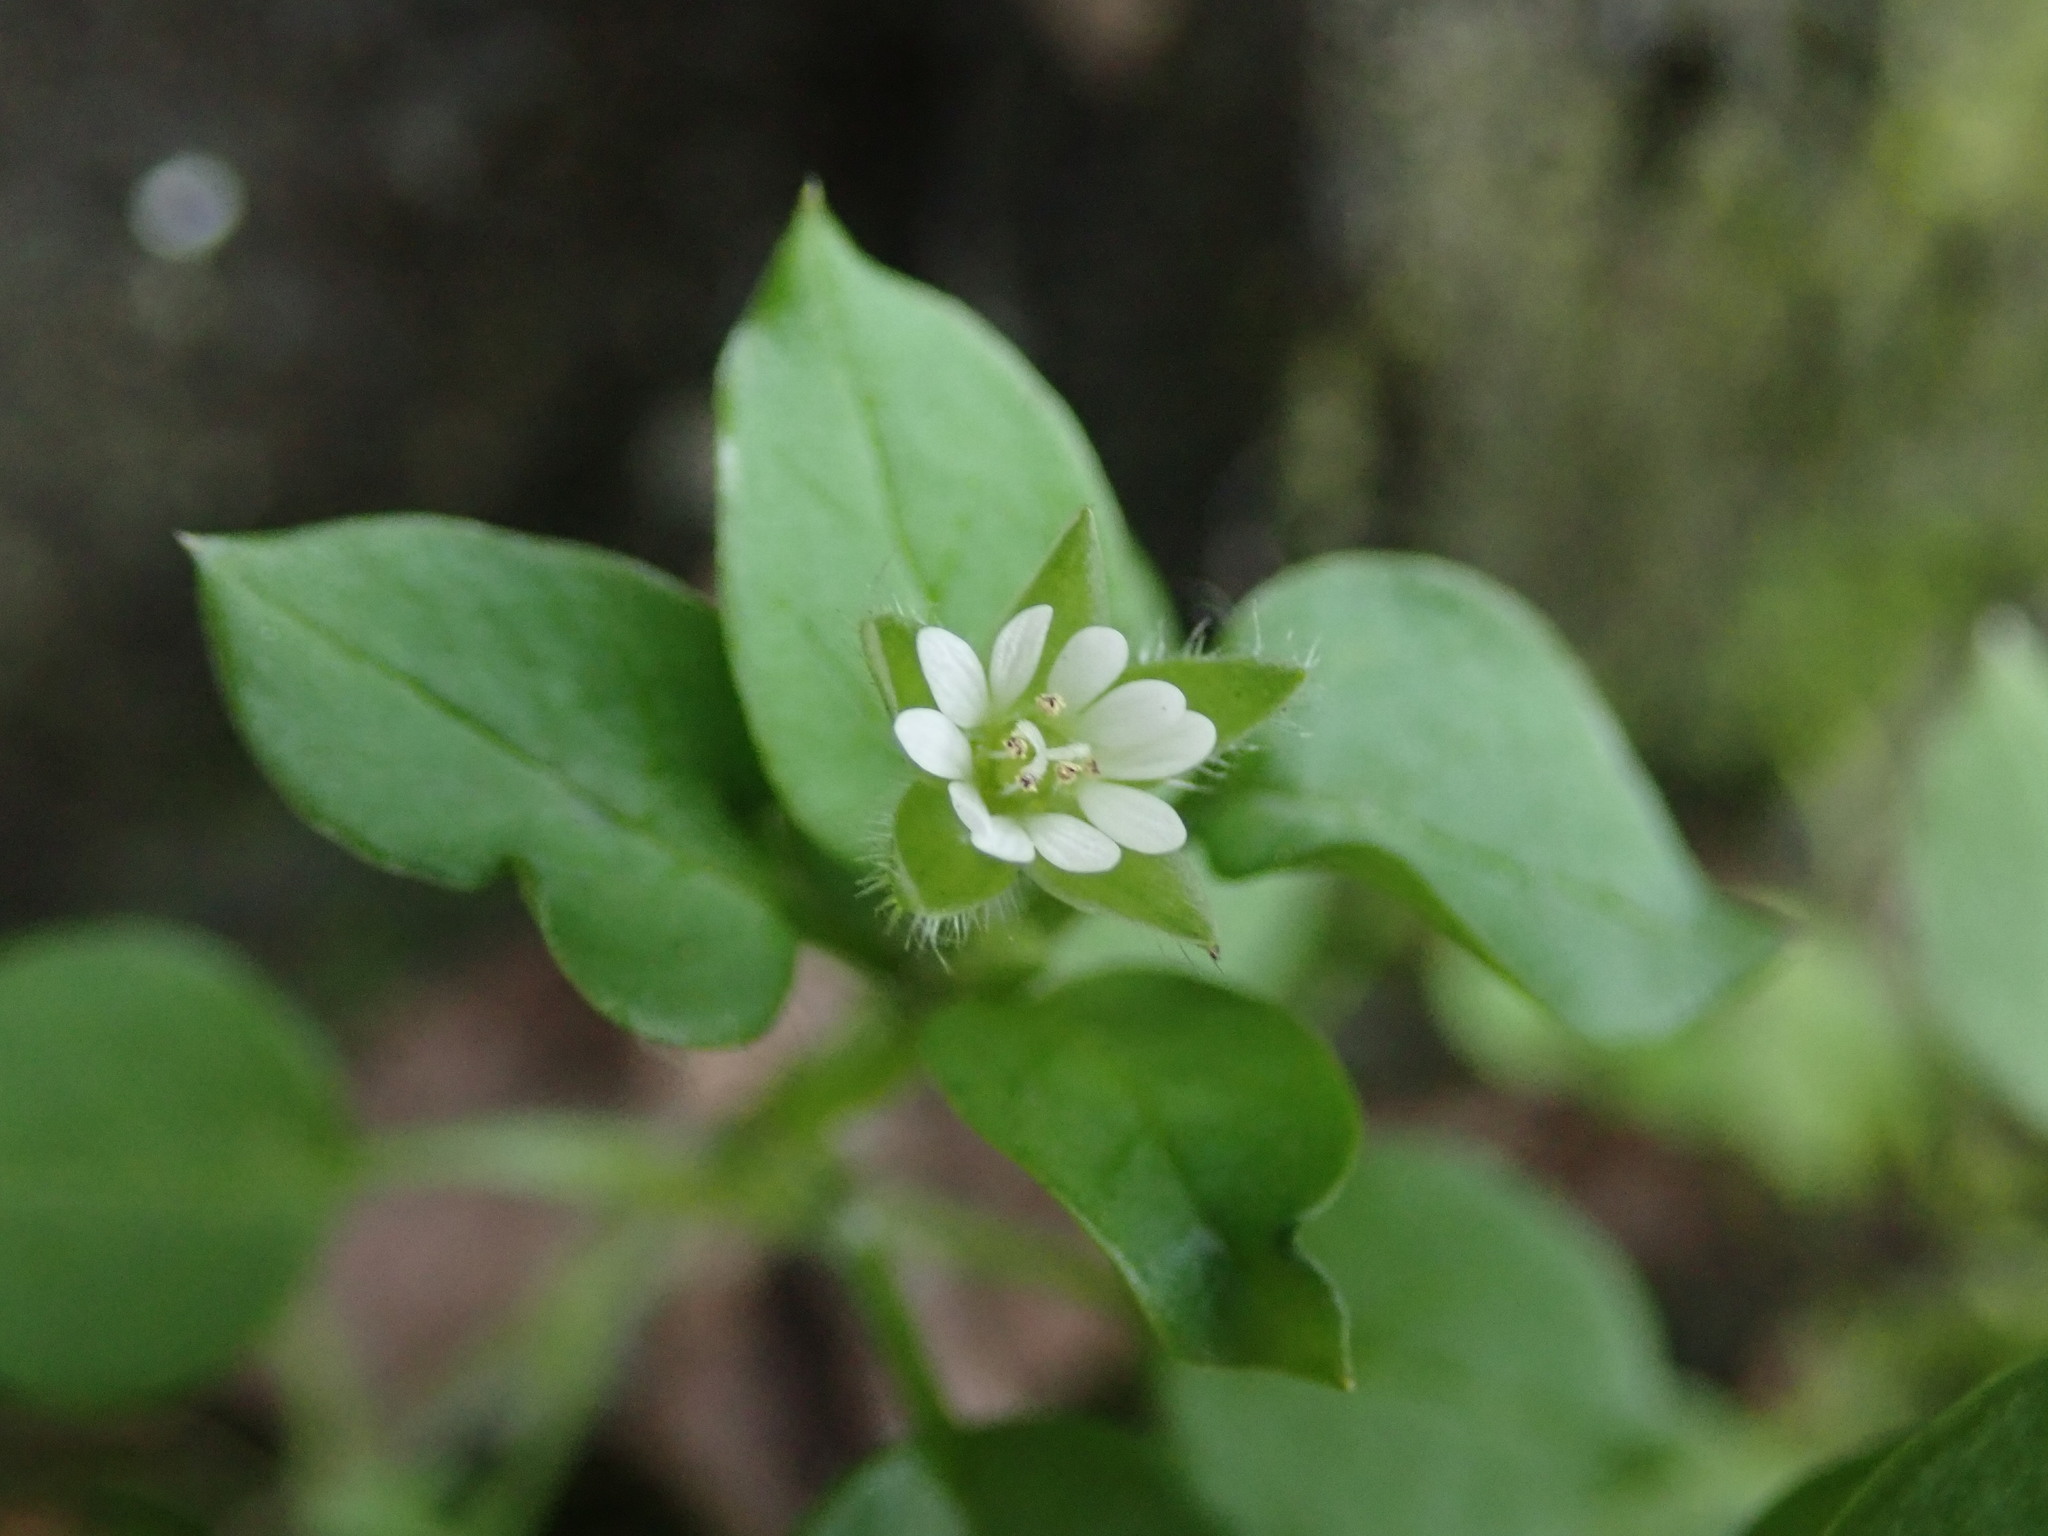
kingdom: Plantae
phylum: Tracheophyta
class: Magnoliopsida
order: Caryophyllales
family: Caryophyllaceae
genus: Stellaria
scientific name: Stellaria media
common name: Common chickweed
